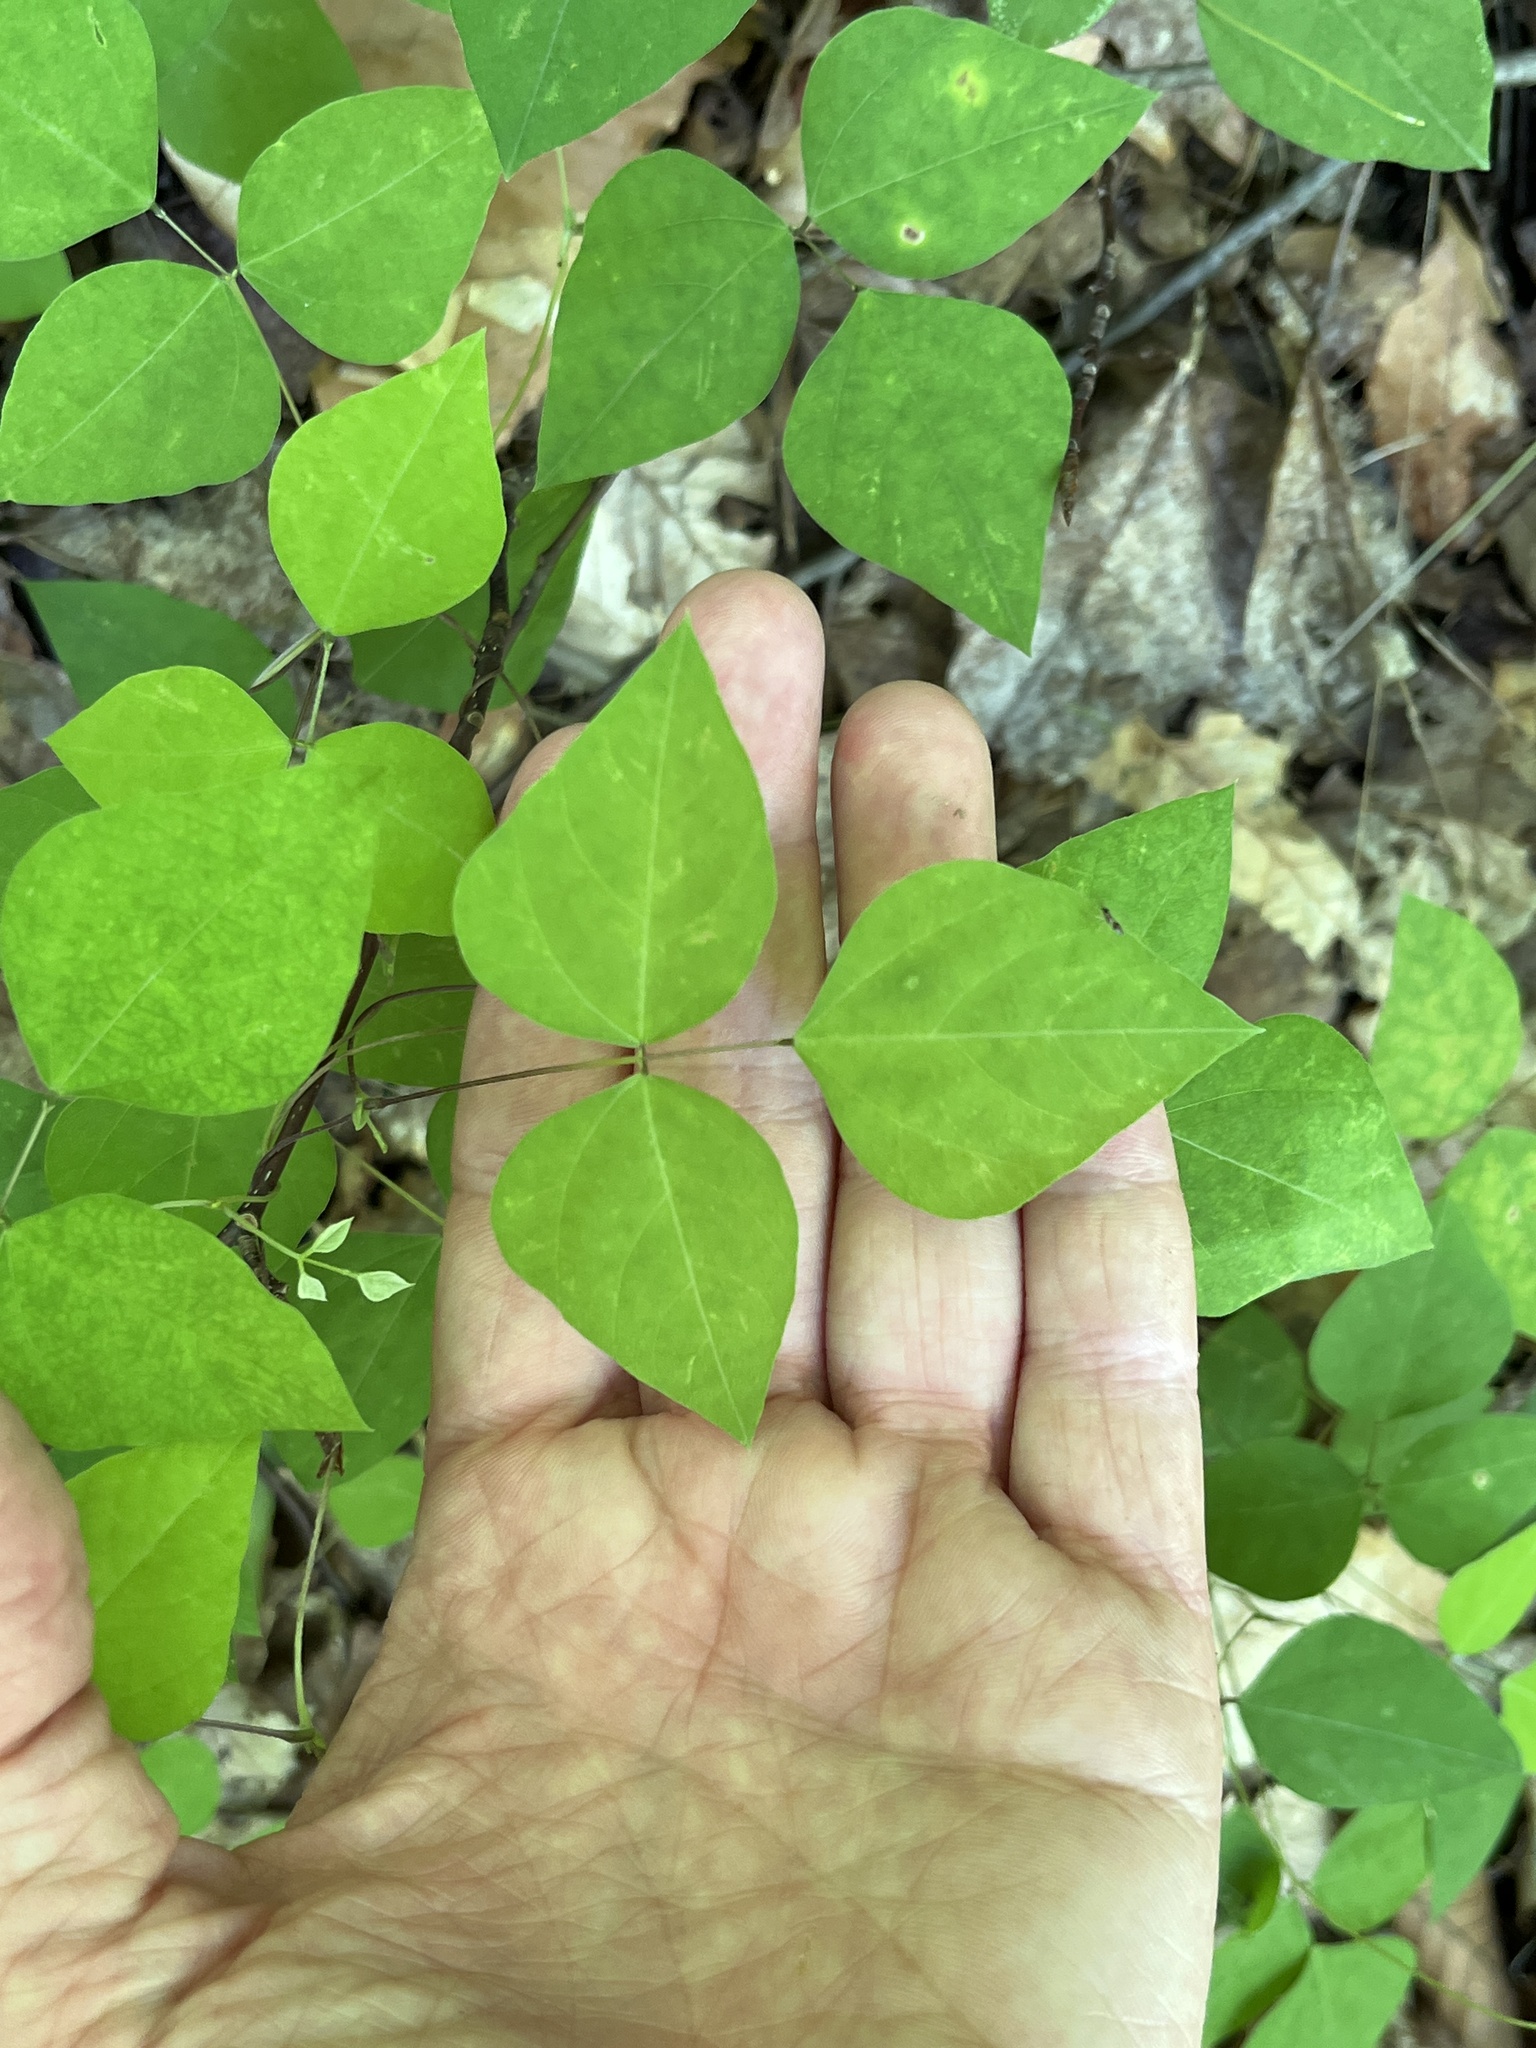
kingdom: Plantae
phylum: Tracheophyta
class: Magnoliopsida
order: Fabales
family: Fabaceae
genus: Amphicarpaea
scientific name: Amphicarpaea bracteata
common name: American hog peanut
